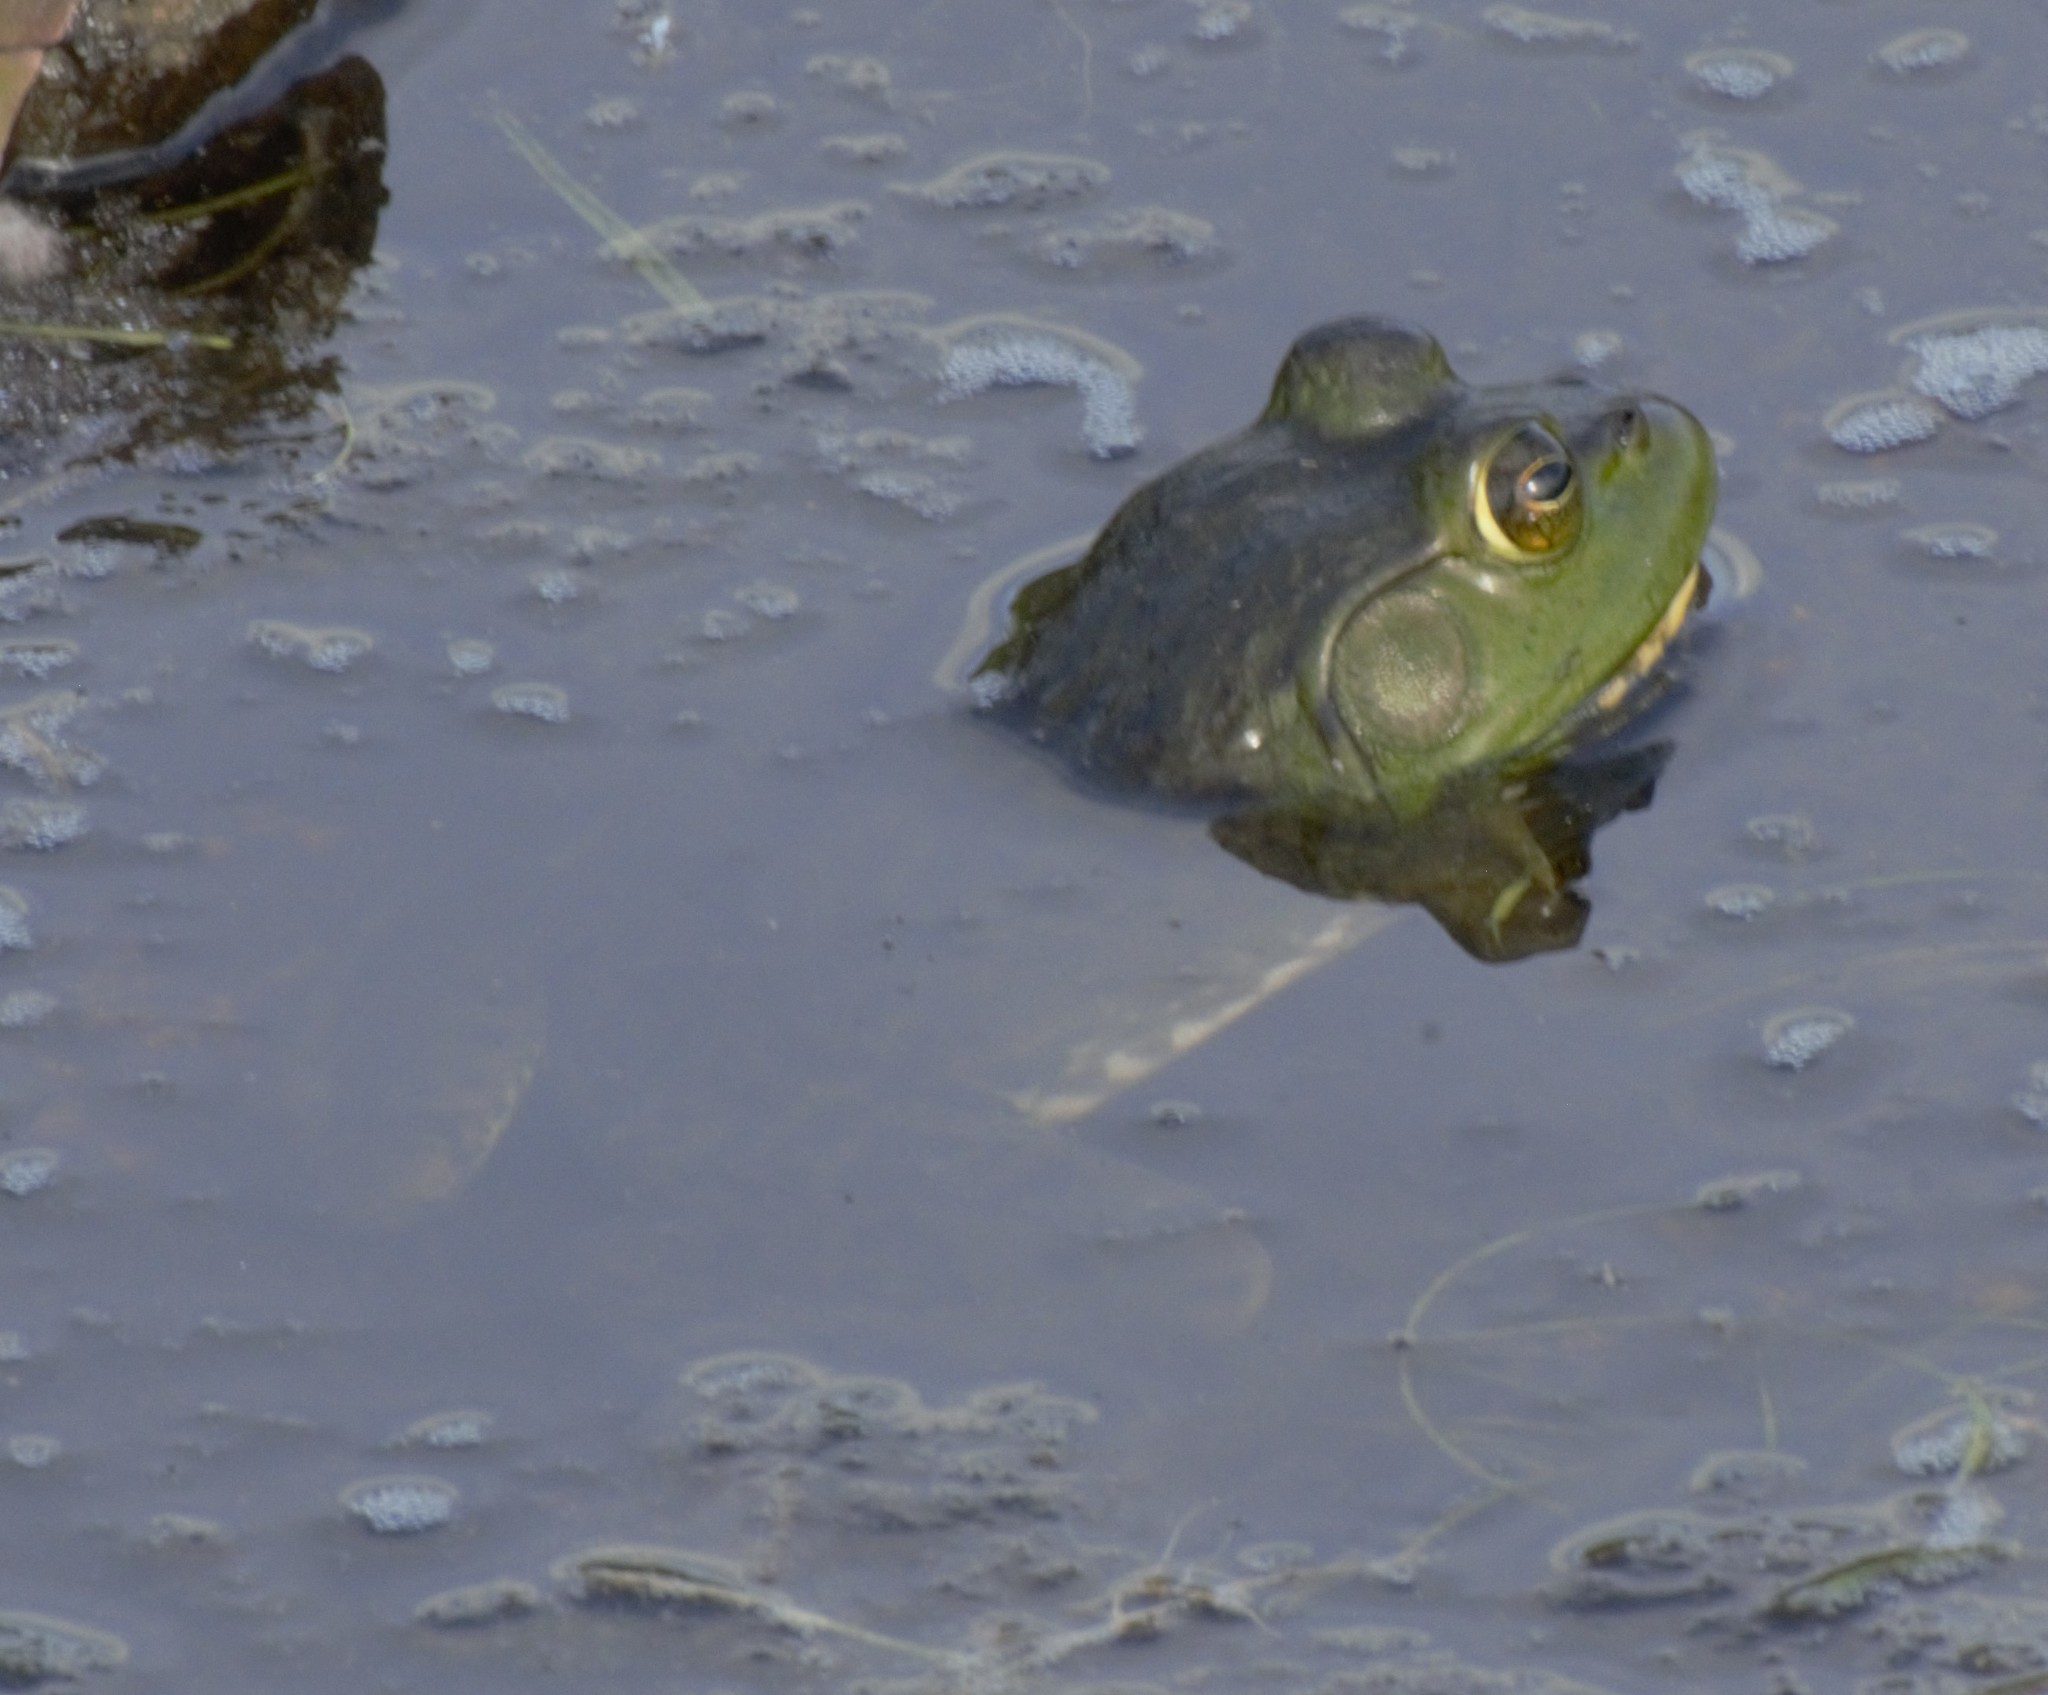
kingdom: Animalia
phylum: Chordata
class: Amphibia
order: Anura
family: Ranidae
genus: Lithobates
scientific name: Lithobates catesbeianus
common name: American bullfrog
